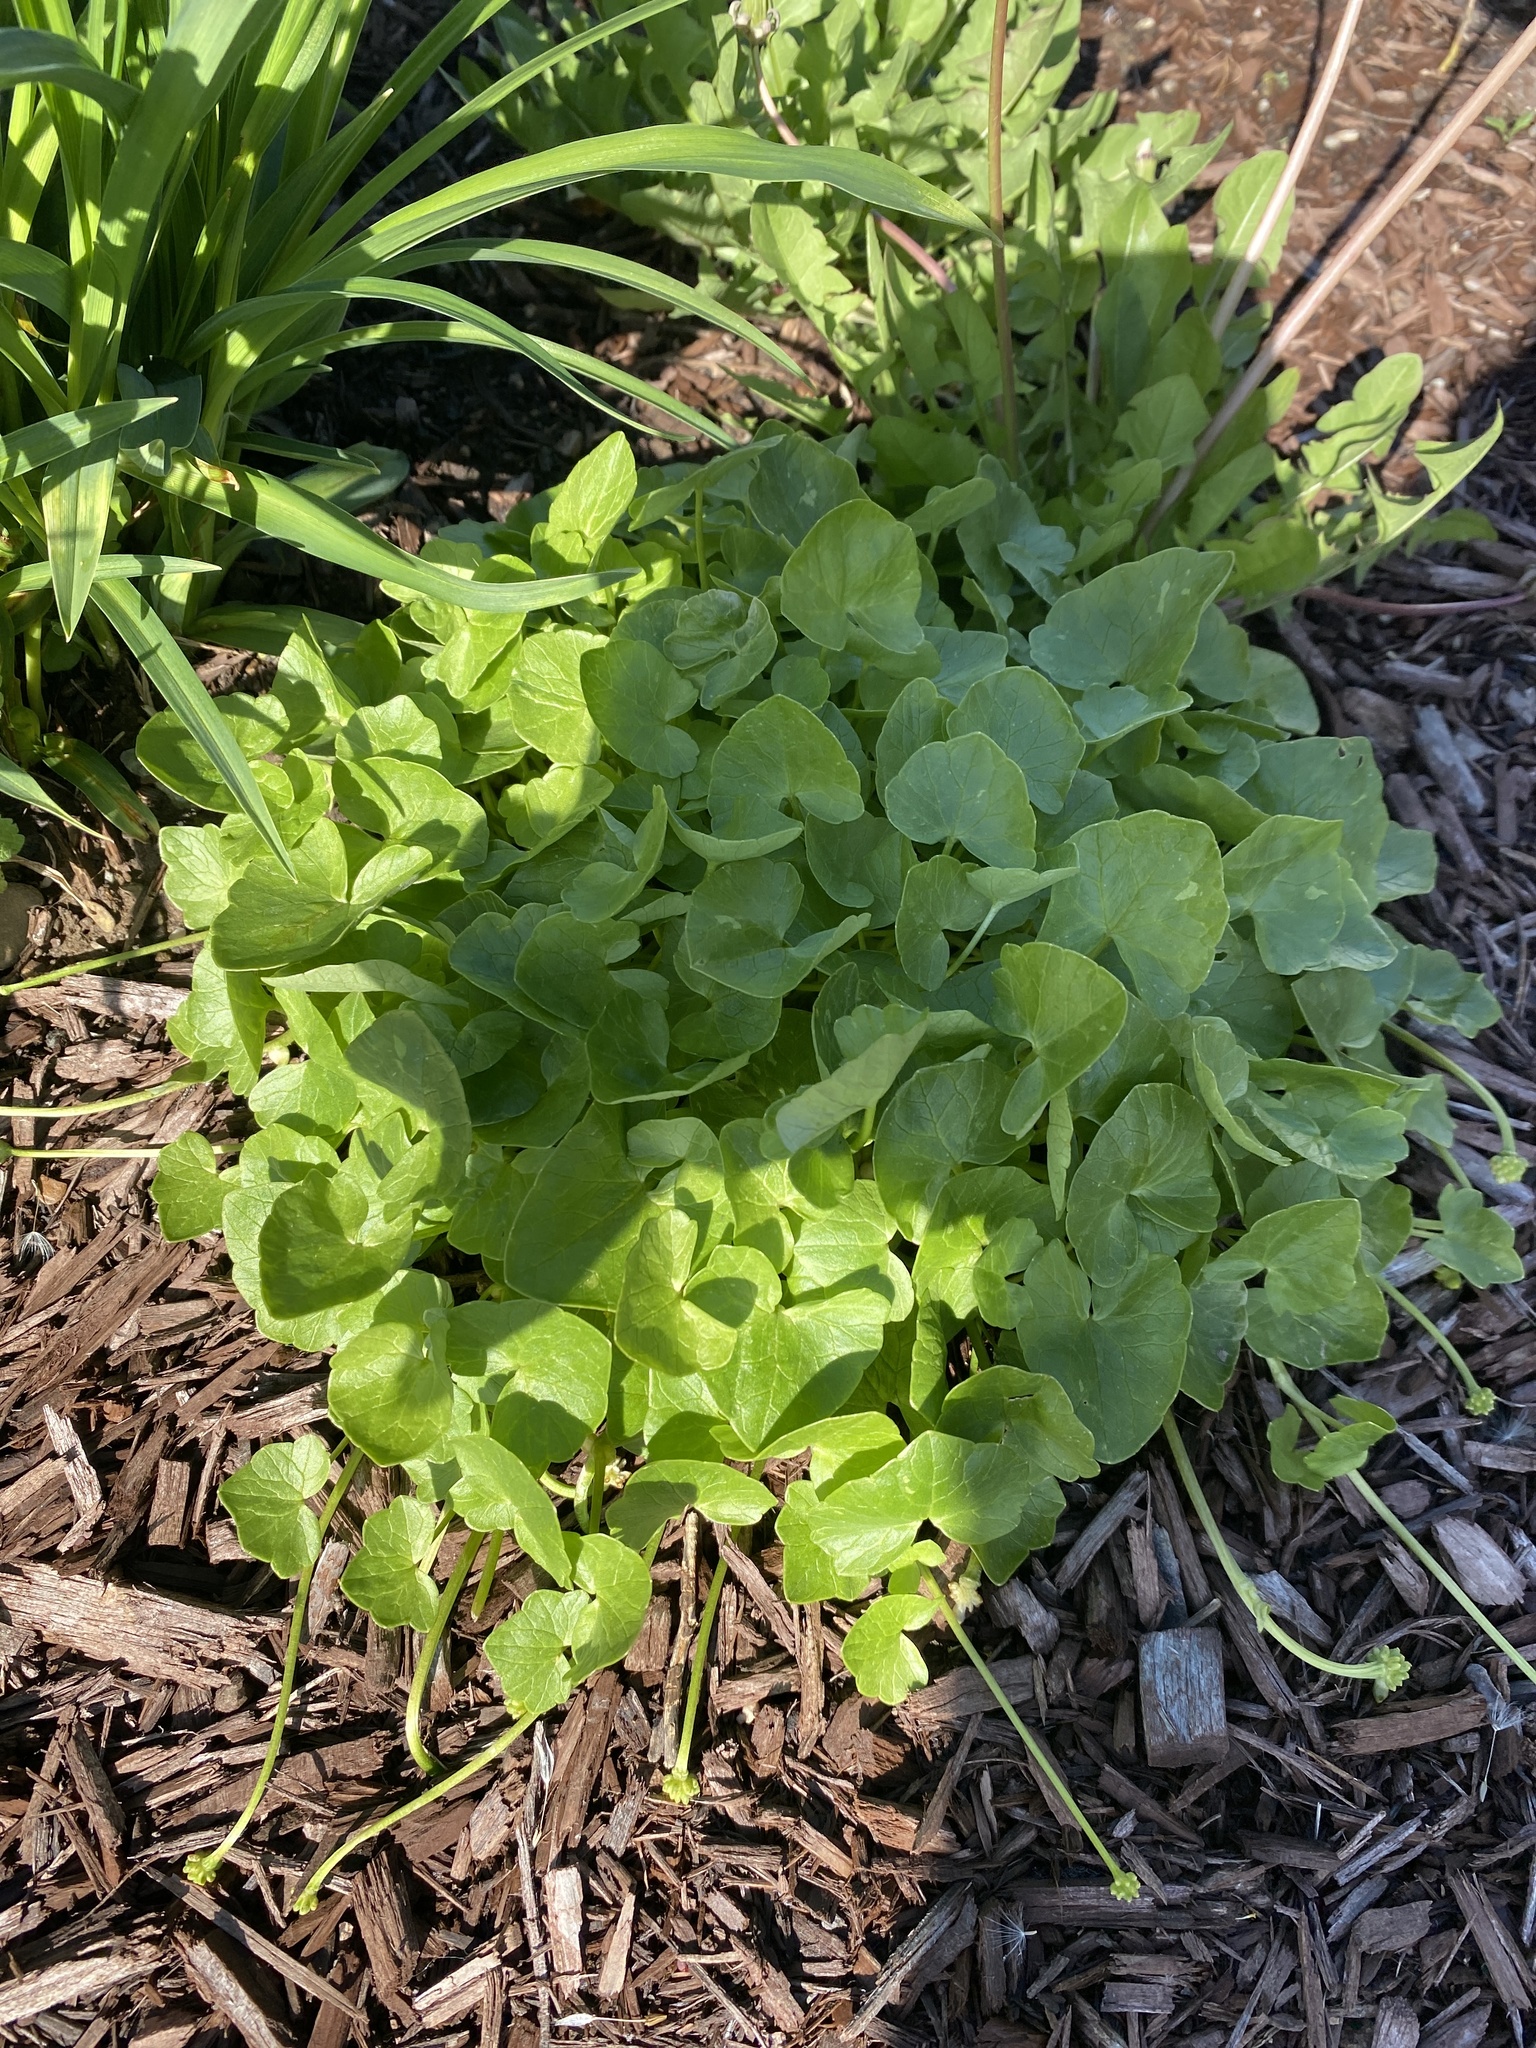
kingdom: Plantae
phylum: Tracheophyta
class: Magnoliopsida
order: Ranunculales
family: Ranunculaceae
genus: Ficaria
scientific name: Ficaria verna
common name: Lesser celandine
